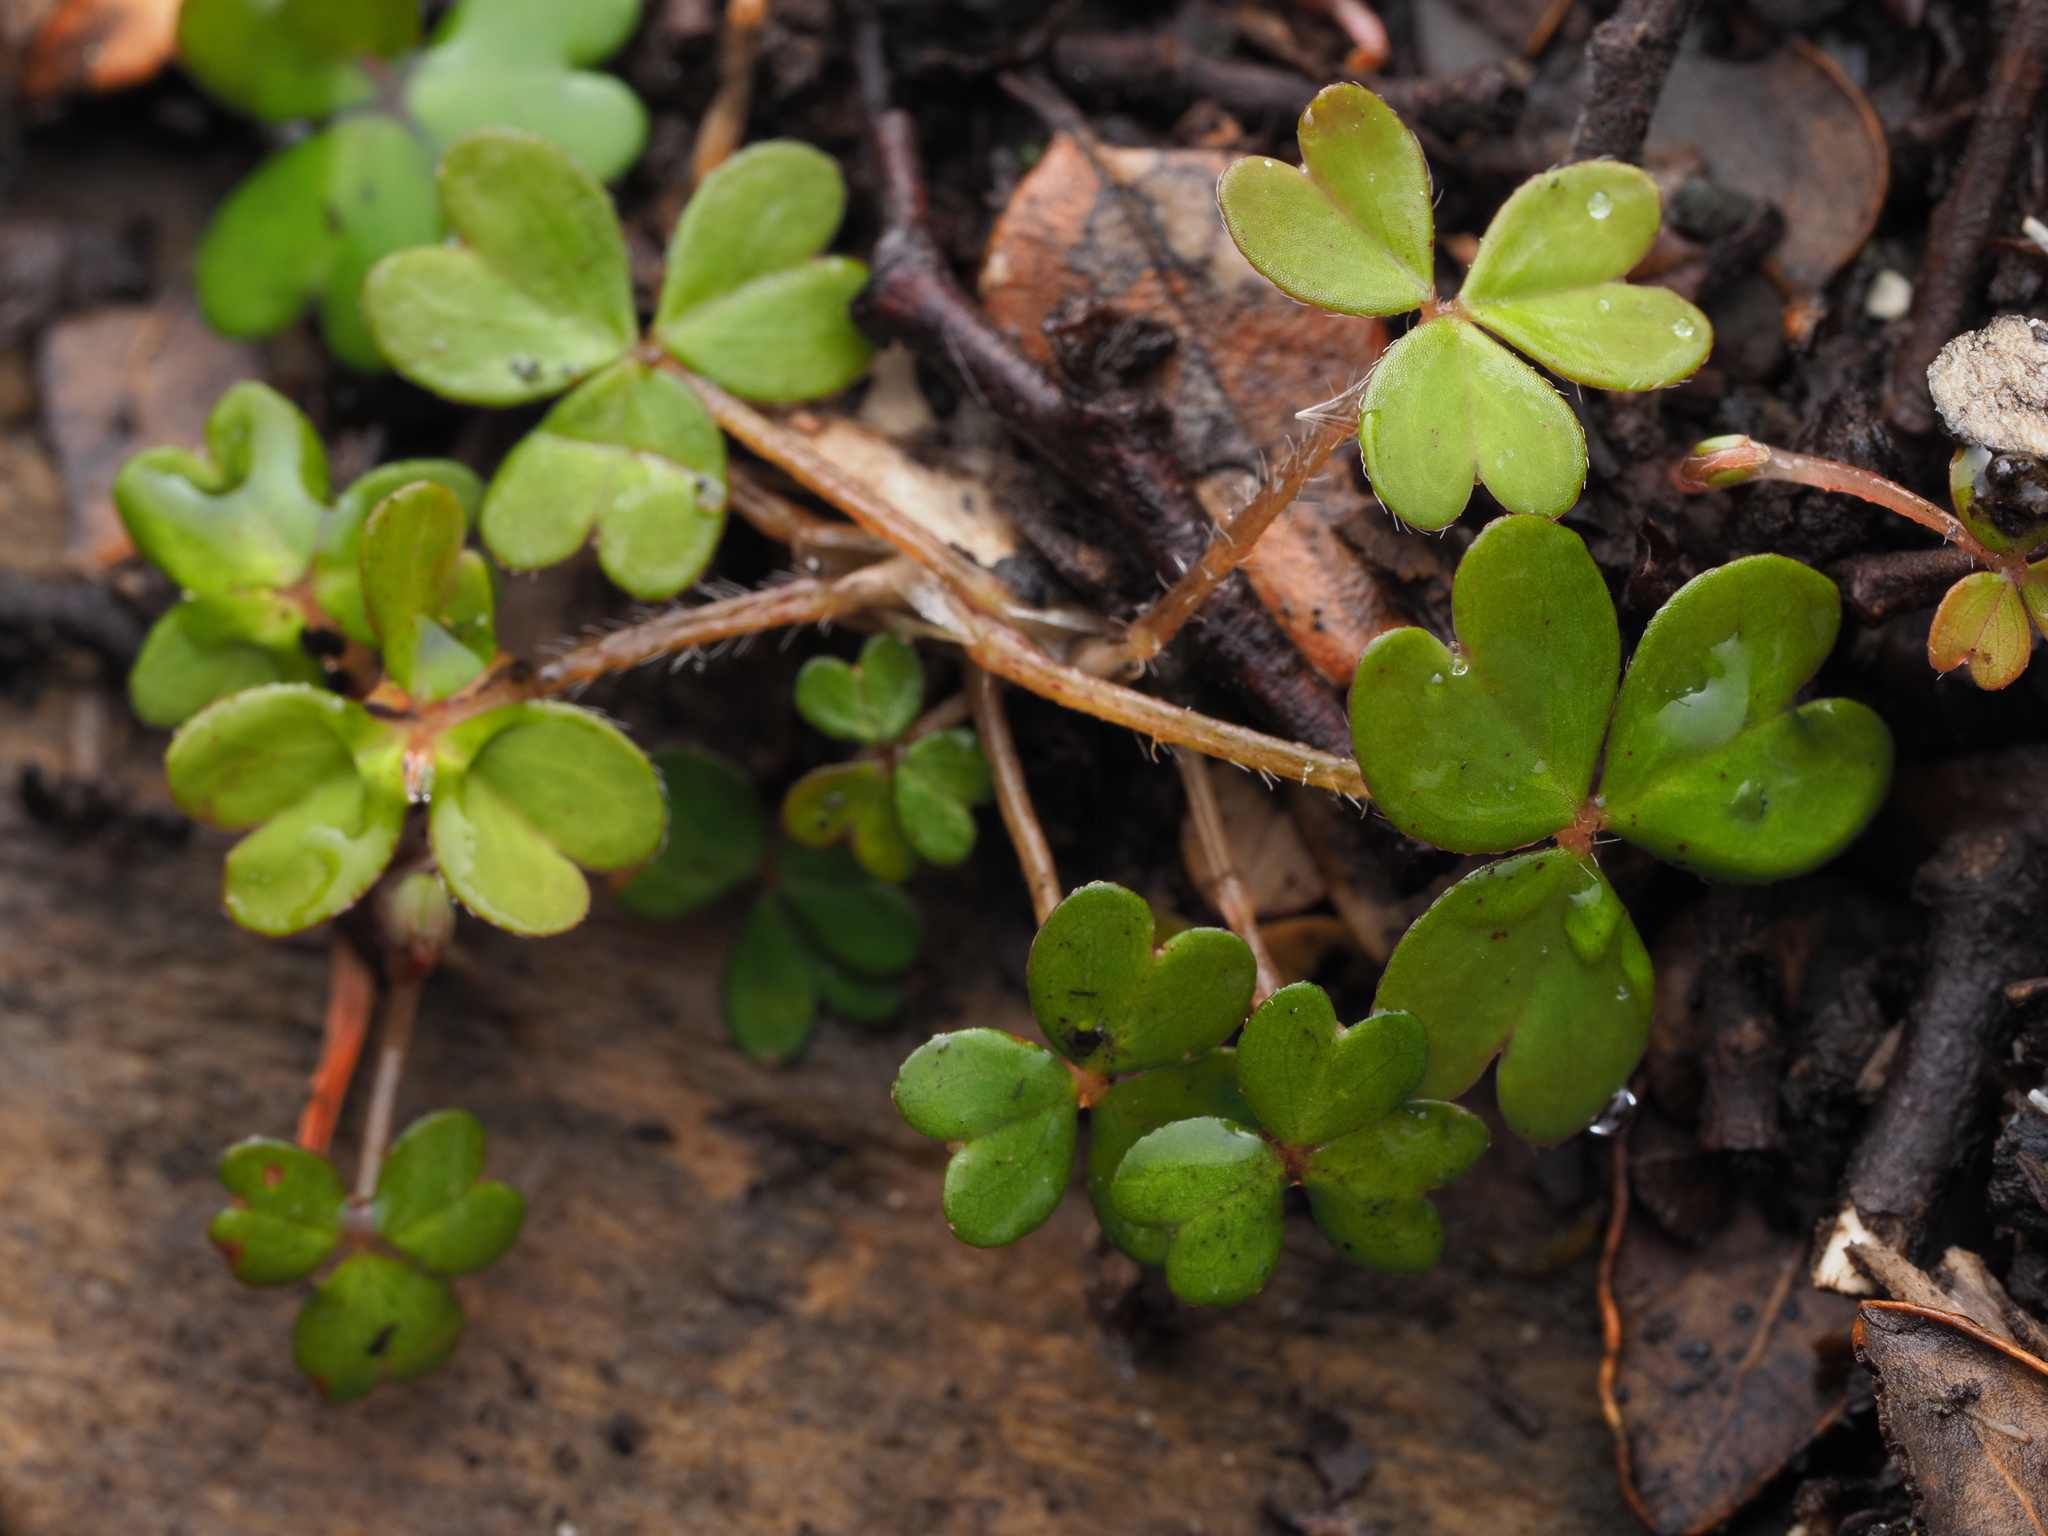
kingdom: Plantae
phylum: Tracheophyta
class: Magnoliopsida
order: Oxalidales
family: Oxalidaceae
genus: Oxalis
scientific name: Oxalis magellanica
